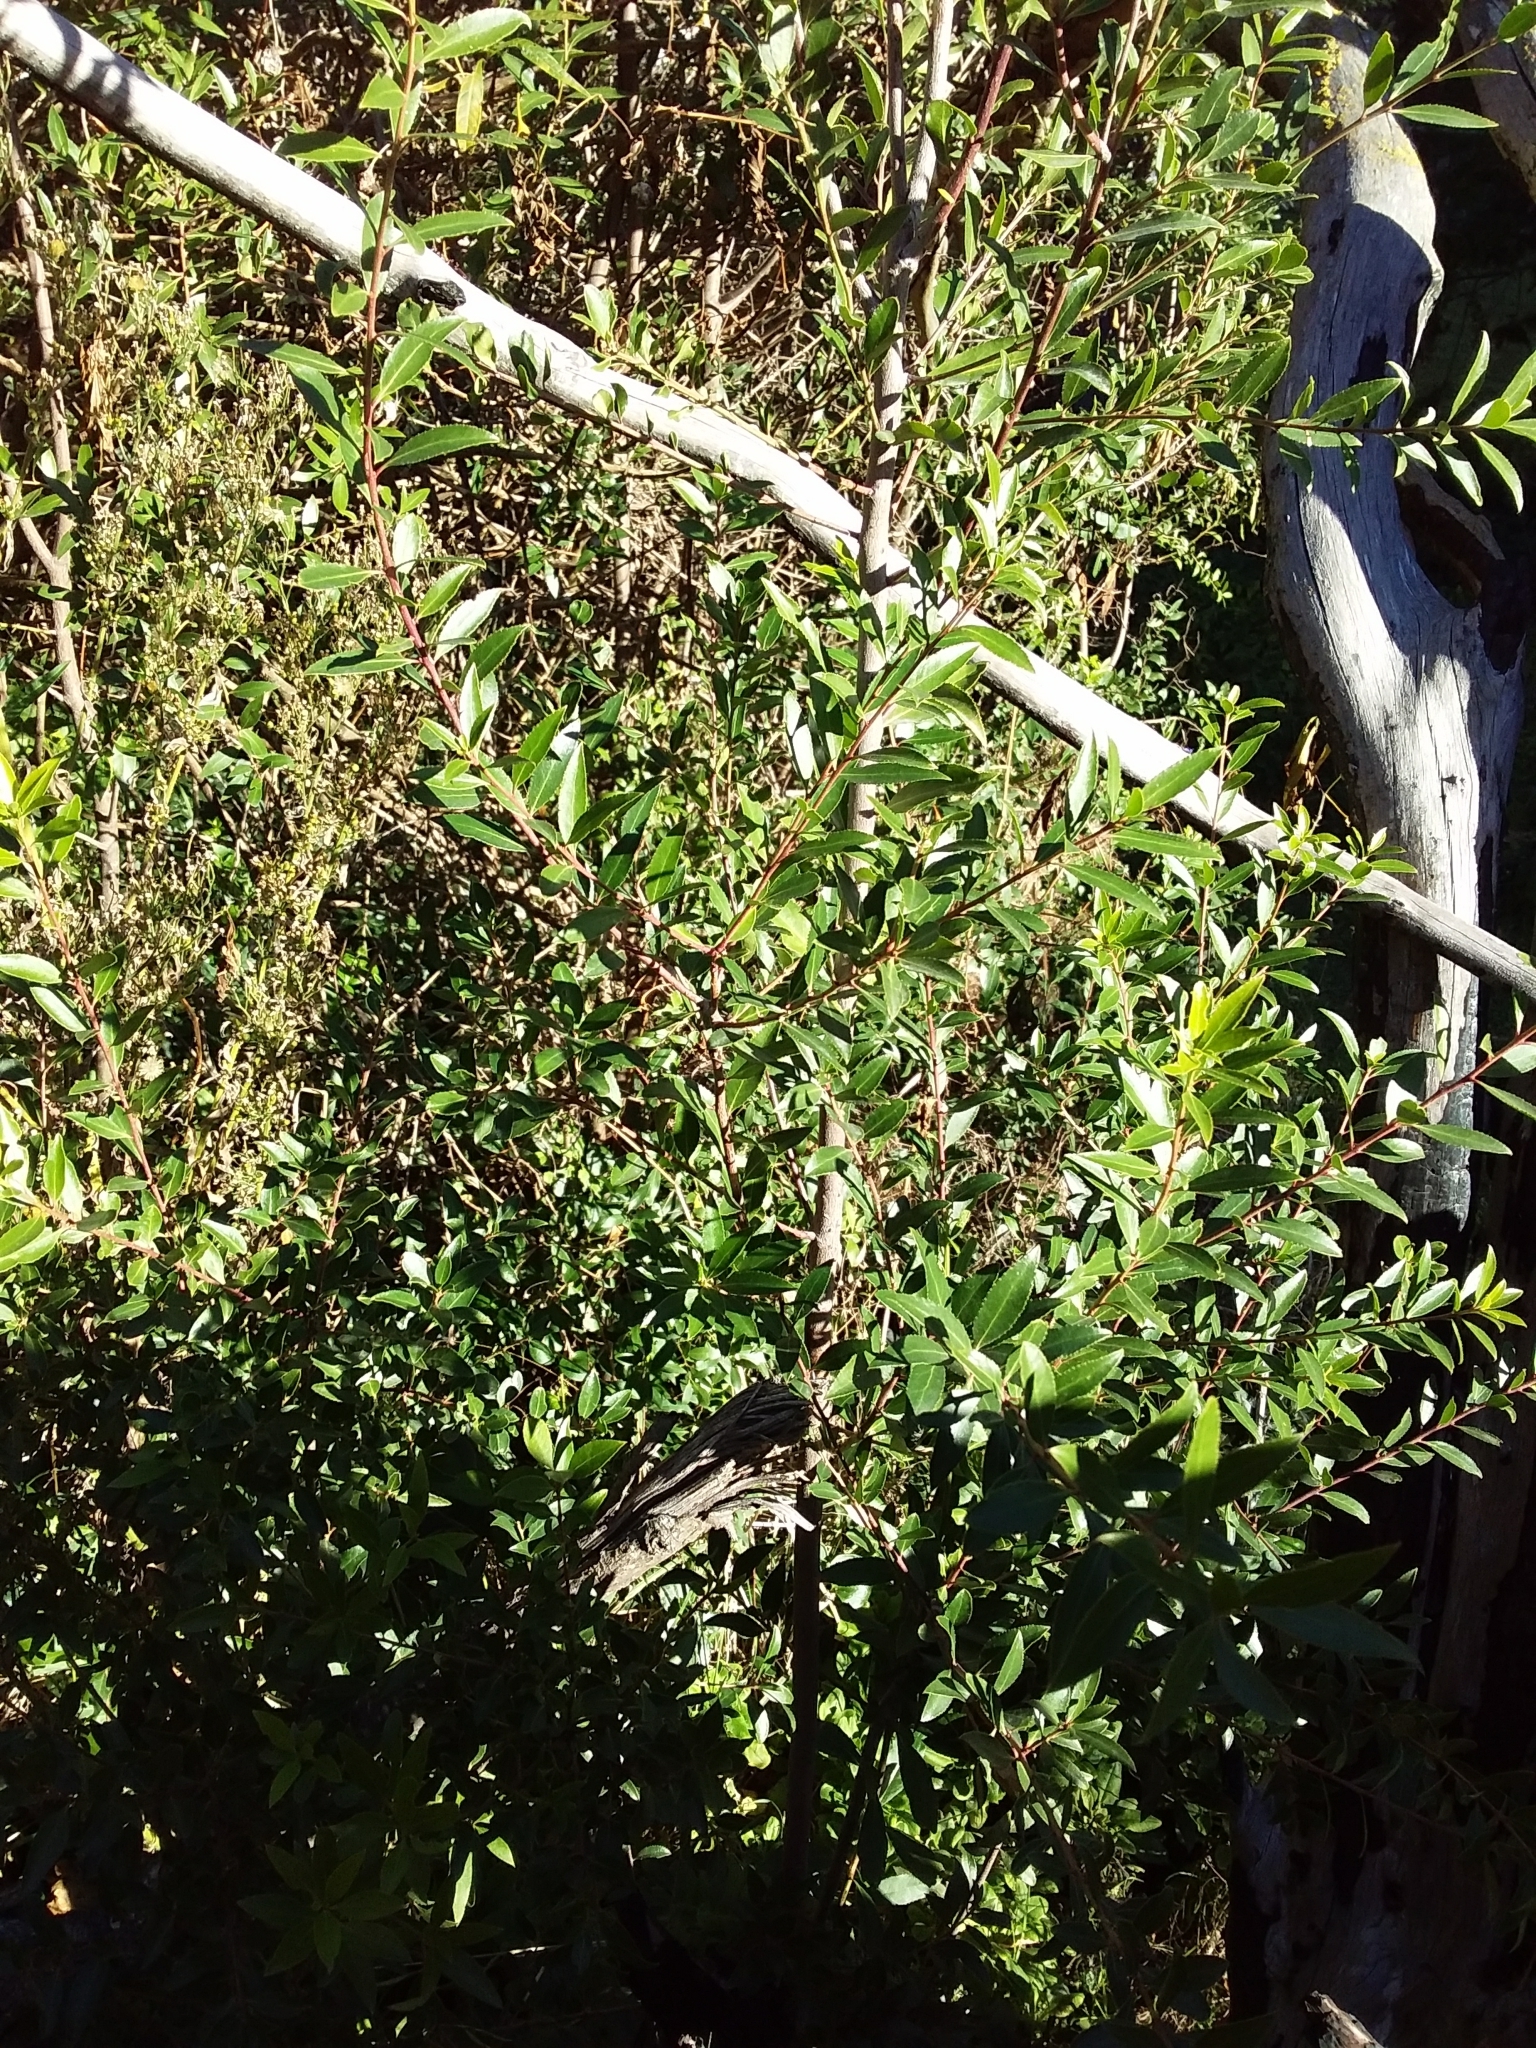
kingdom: Plantae
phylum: Tracheophyta
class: Magnoliopsida
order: Celastrales
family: Celastraceae
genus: Maytenus
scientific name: Maytenus boaria
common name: Mayten
